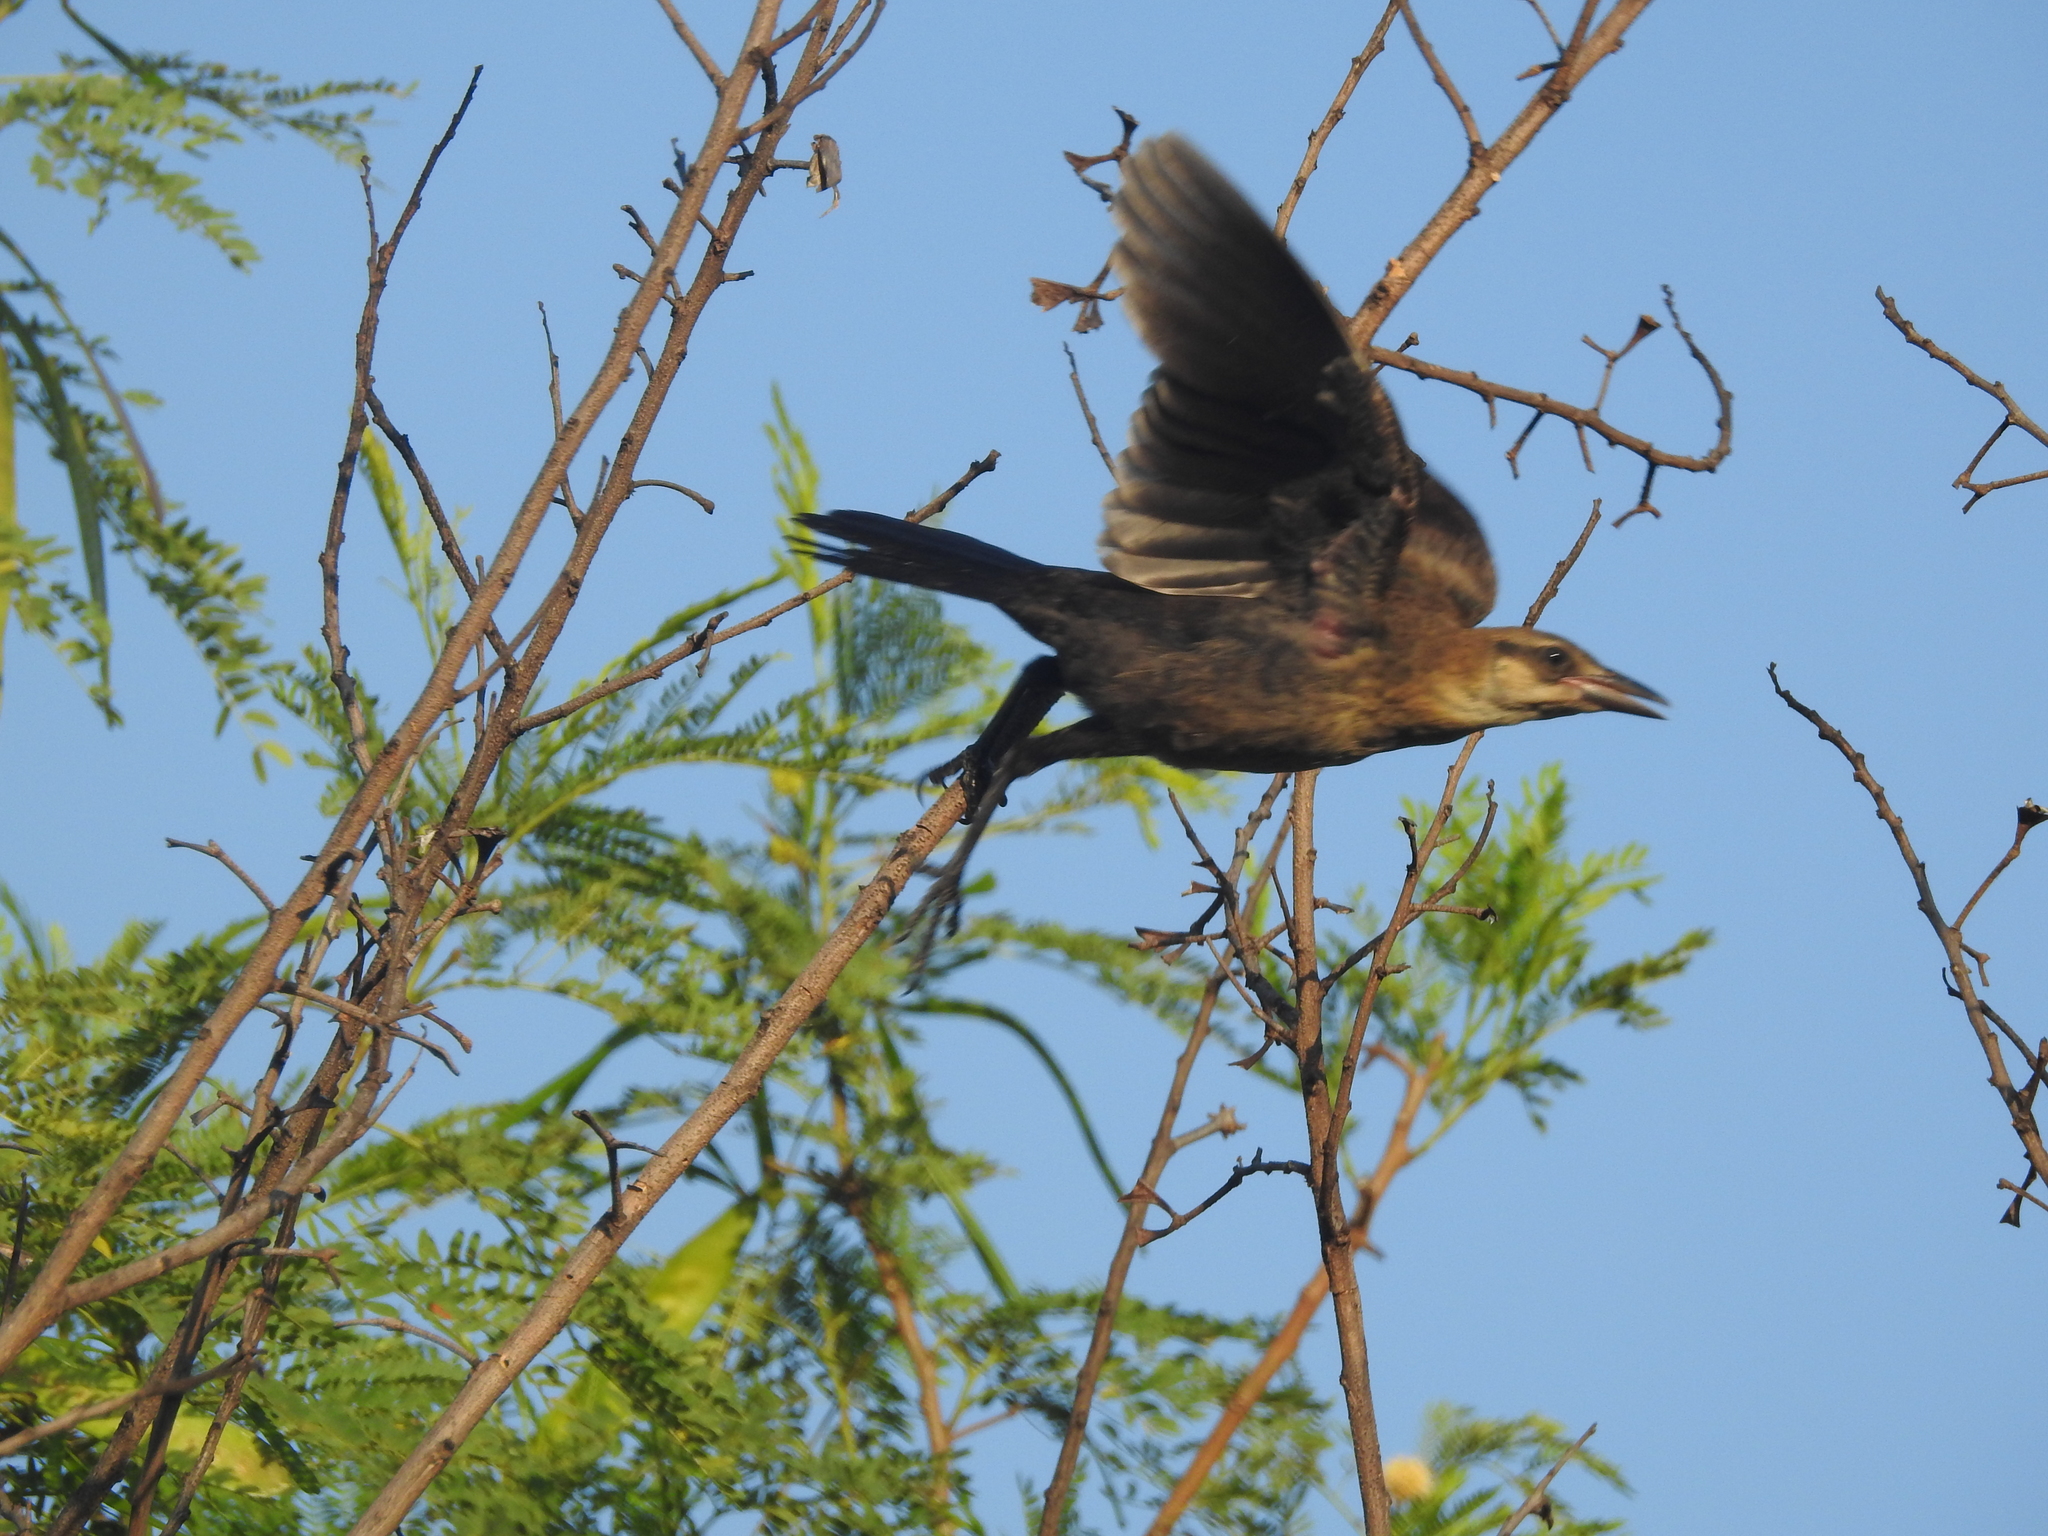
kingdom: Animalia
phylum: Chordata
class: Aves
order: Passeriformes
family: Icteridae
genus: Quiscalus
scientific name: Quiscalus mexicanus
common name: Great-tailed grackle
